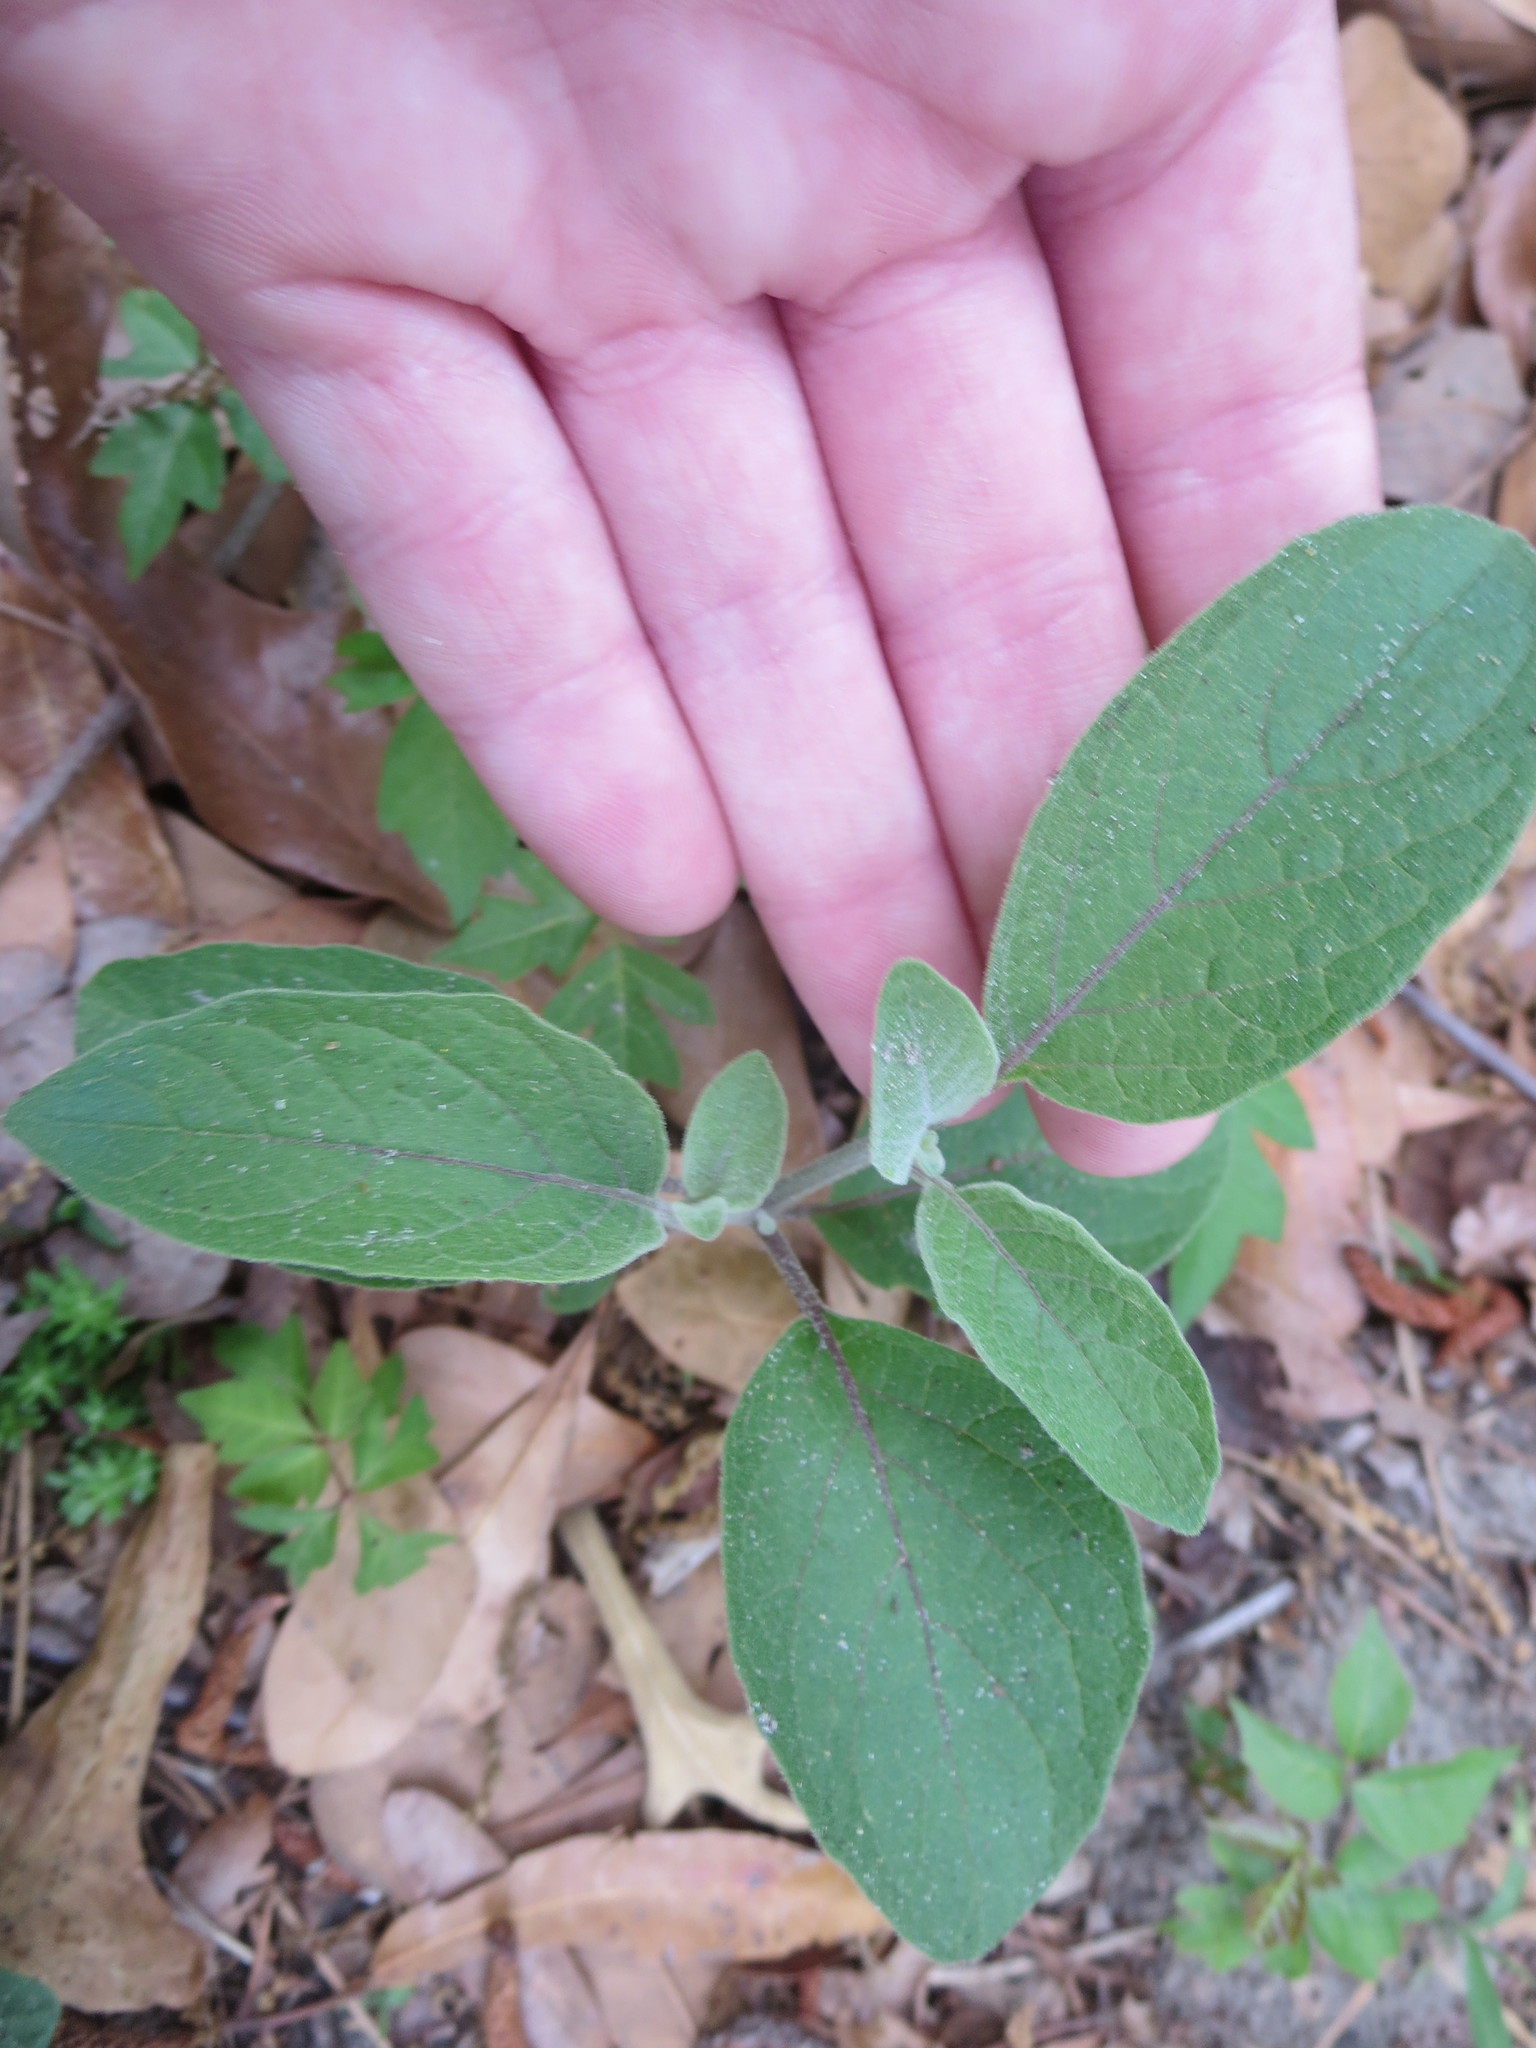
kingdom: Plantae
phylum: Tracheophyta
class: Magnoliopsida
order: Solanales
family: Solanaceae
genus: Physalis
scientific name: Physalis walteri
